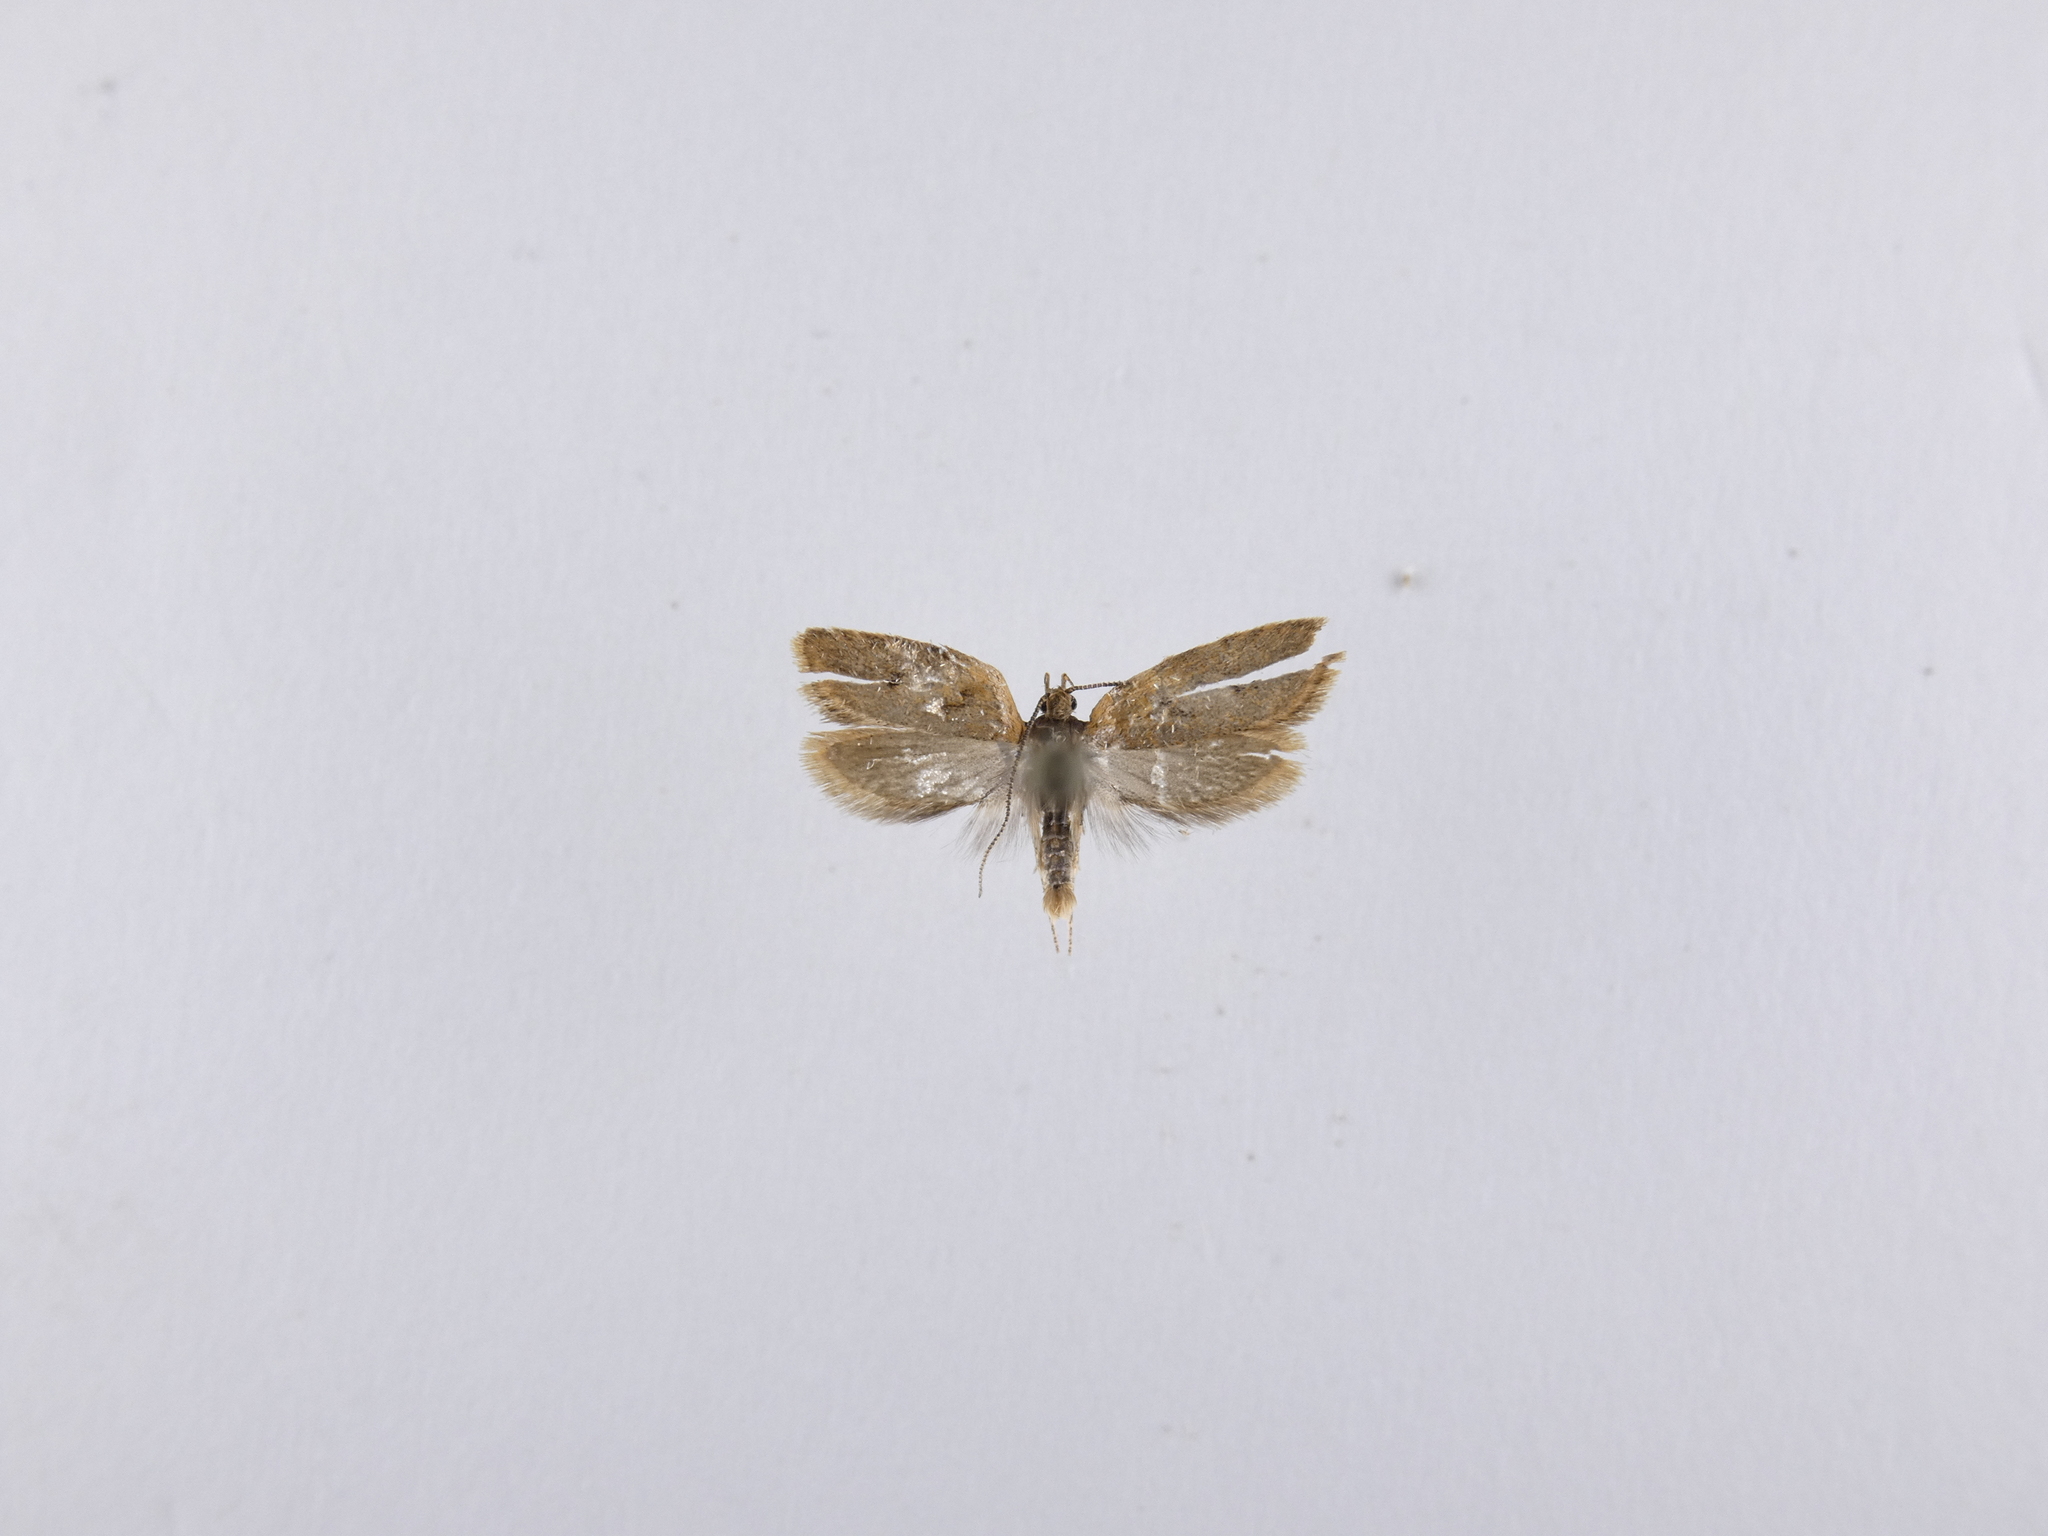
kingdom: Animalia
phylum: Arthropoda
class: Insecta
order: Lepidoptera
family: Oecophoridae
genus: Gymnobathra
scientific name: Gymnobathra tholodella
